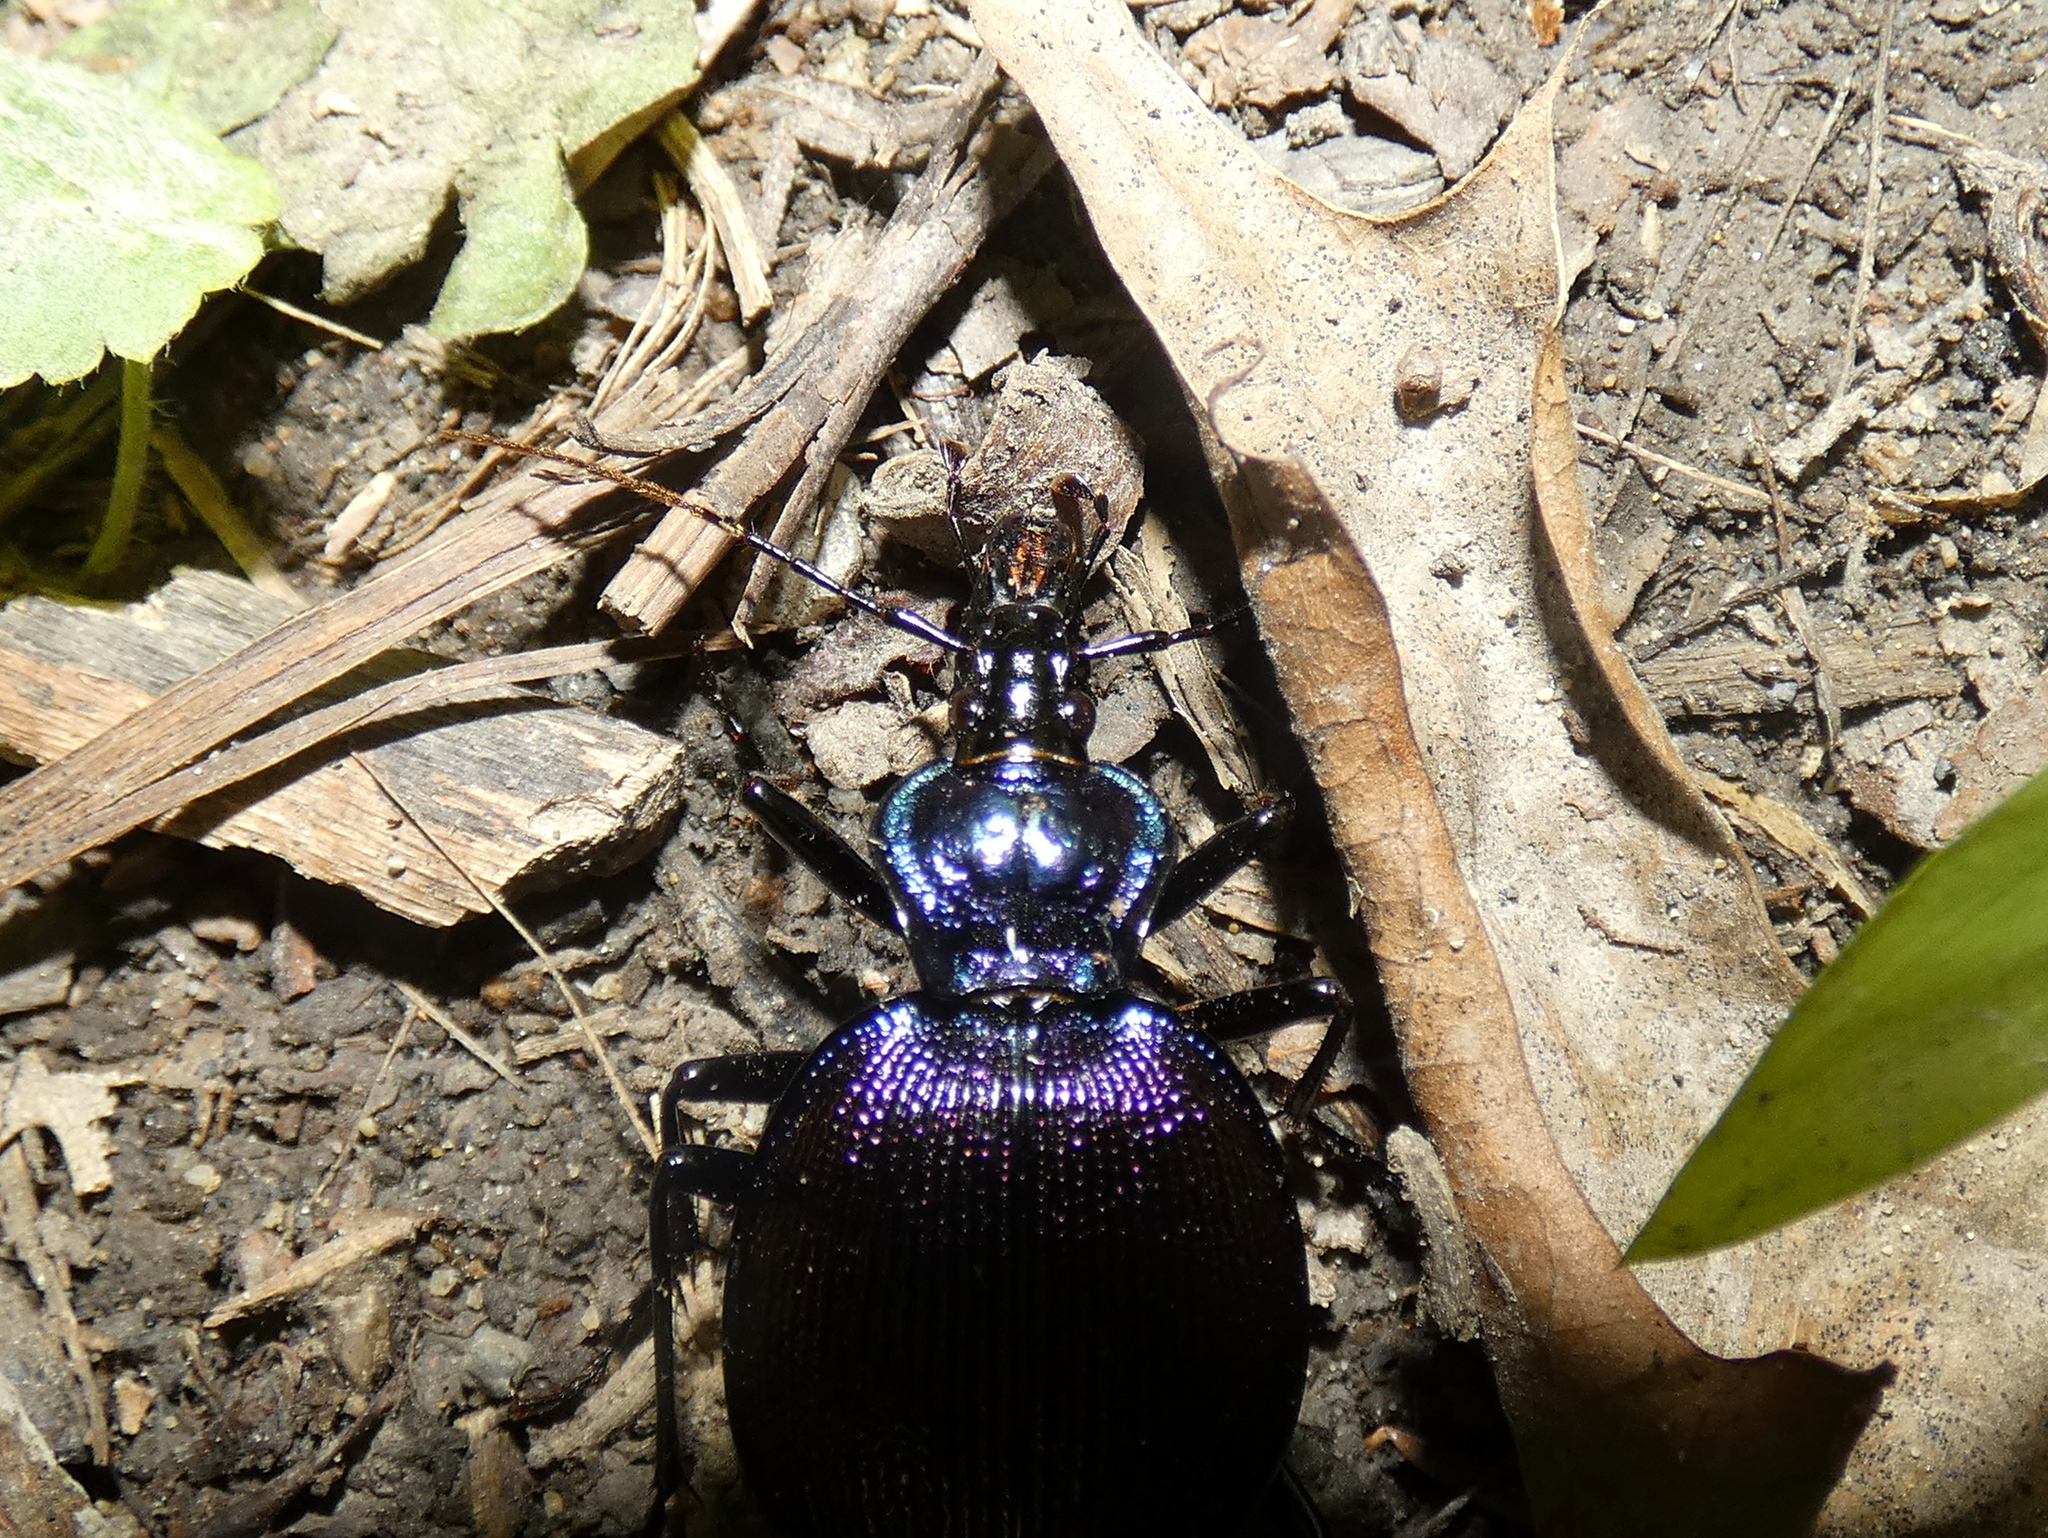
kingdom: Animalia
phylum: Arthropoda
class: Insecta
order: Coleoptera
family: Carabidae
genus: Scaphinotus
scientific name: Scaphinotus viduus
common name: Bereft snail-eating beetle
